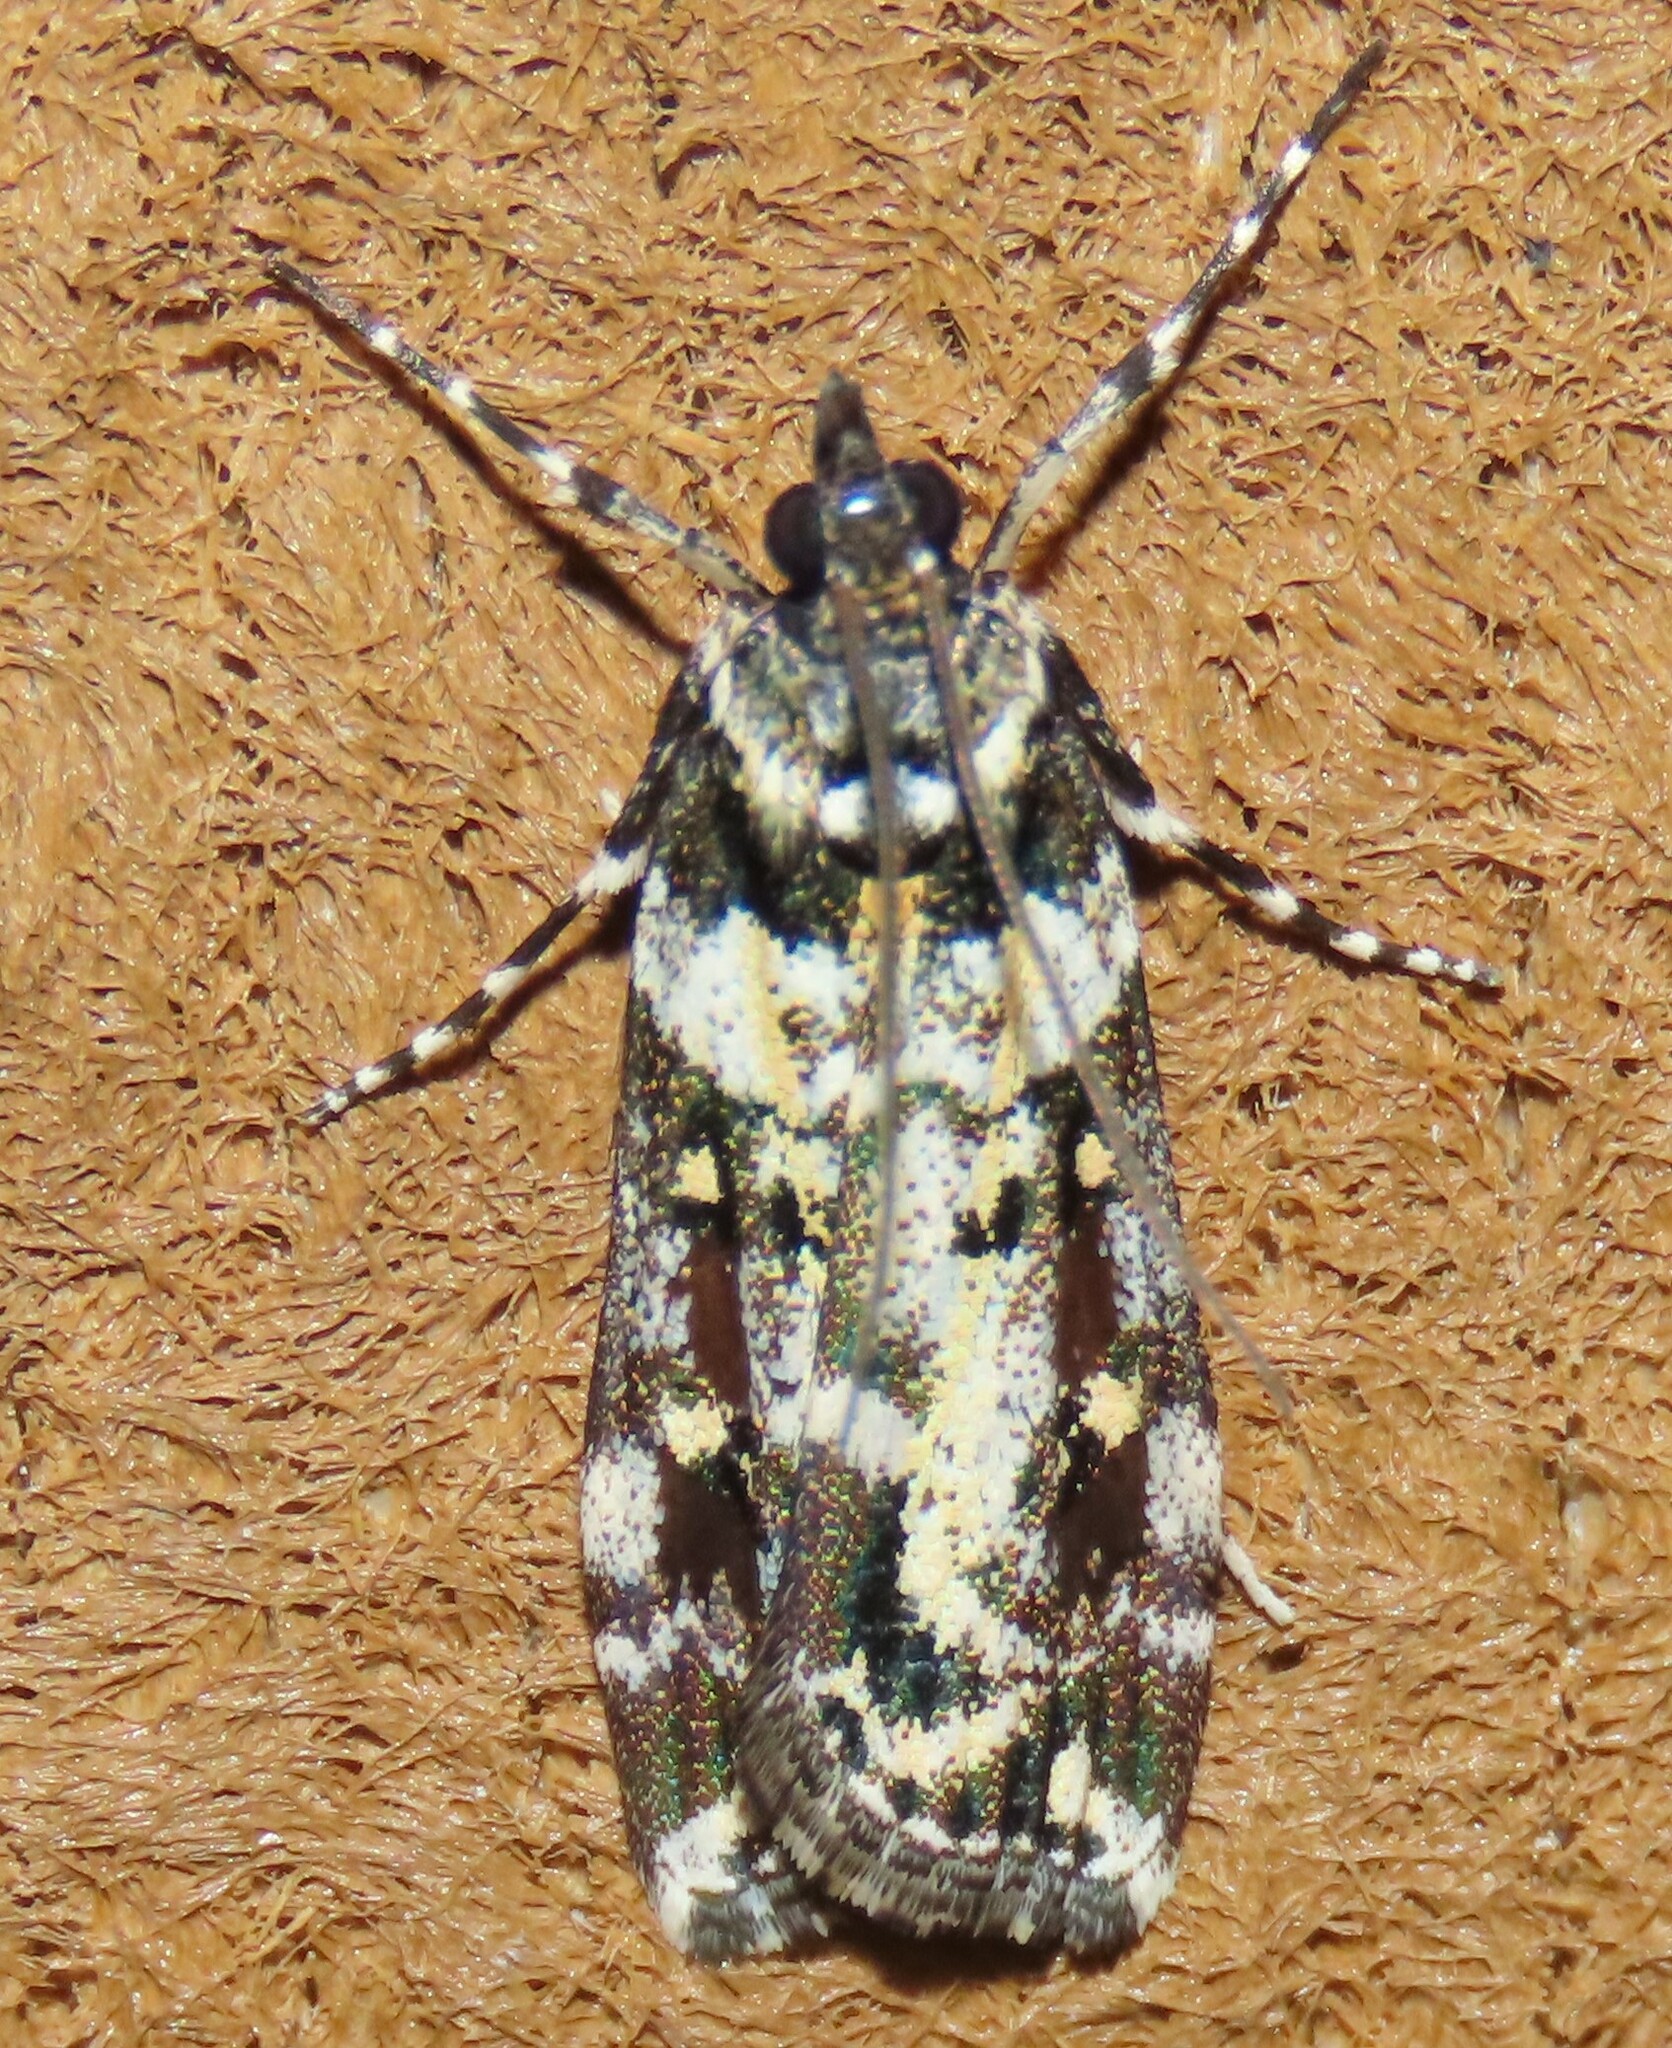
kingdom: Animalia
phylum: Arthropoda
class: Insecta
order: Lepidoptera
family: Crambidae
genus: Eudonia
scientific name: Eudonia diphtheralis
